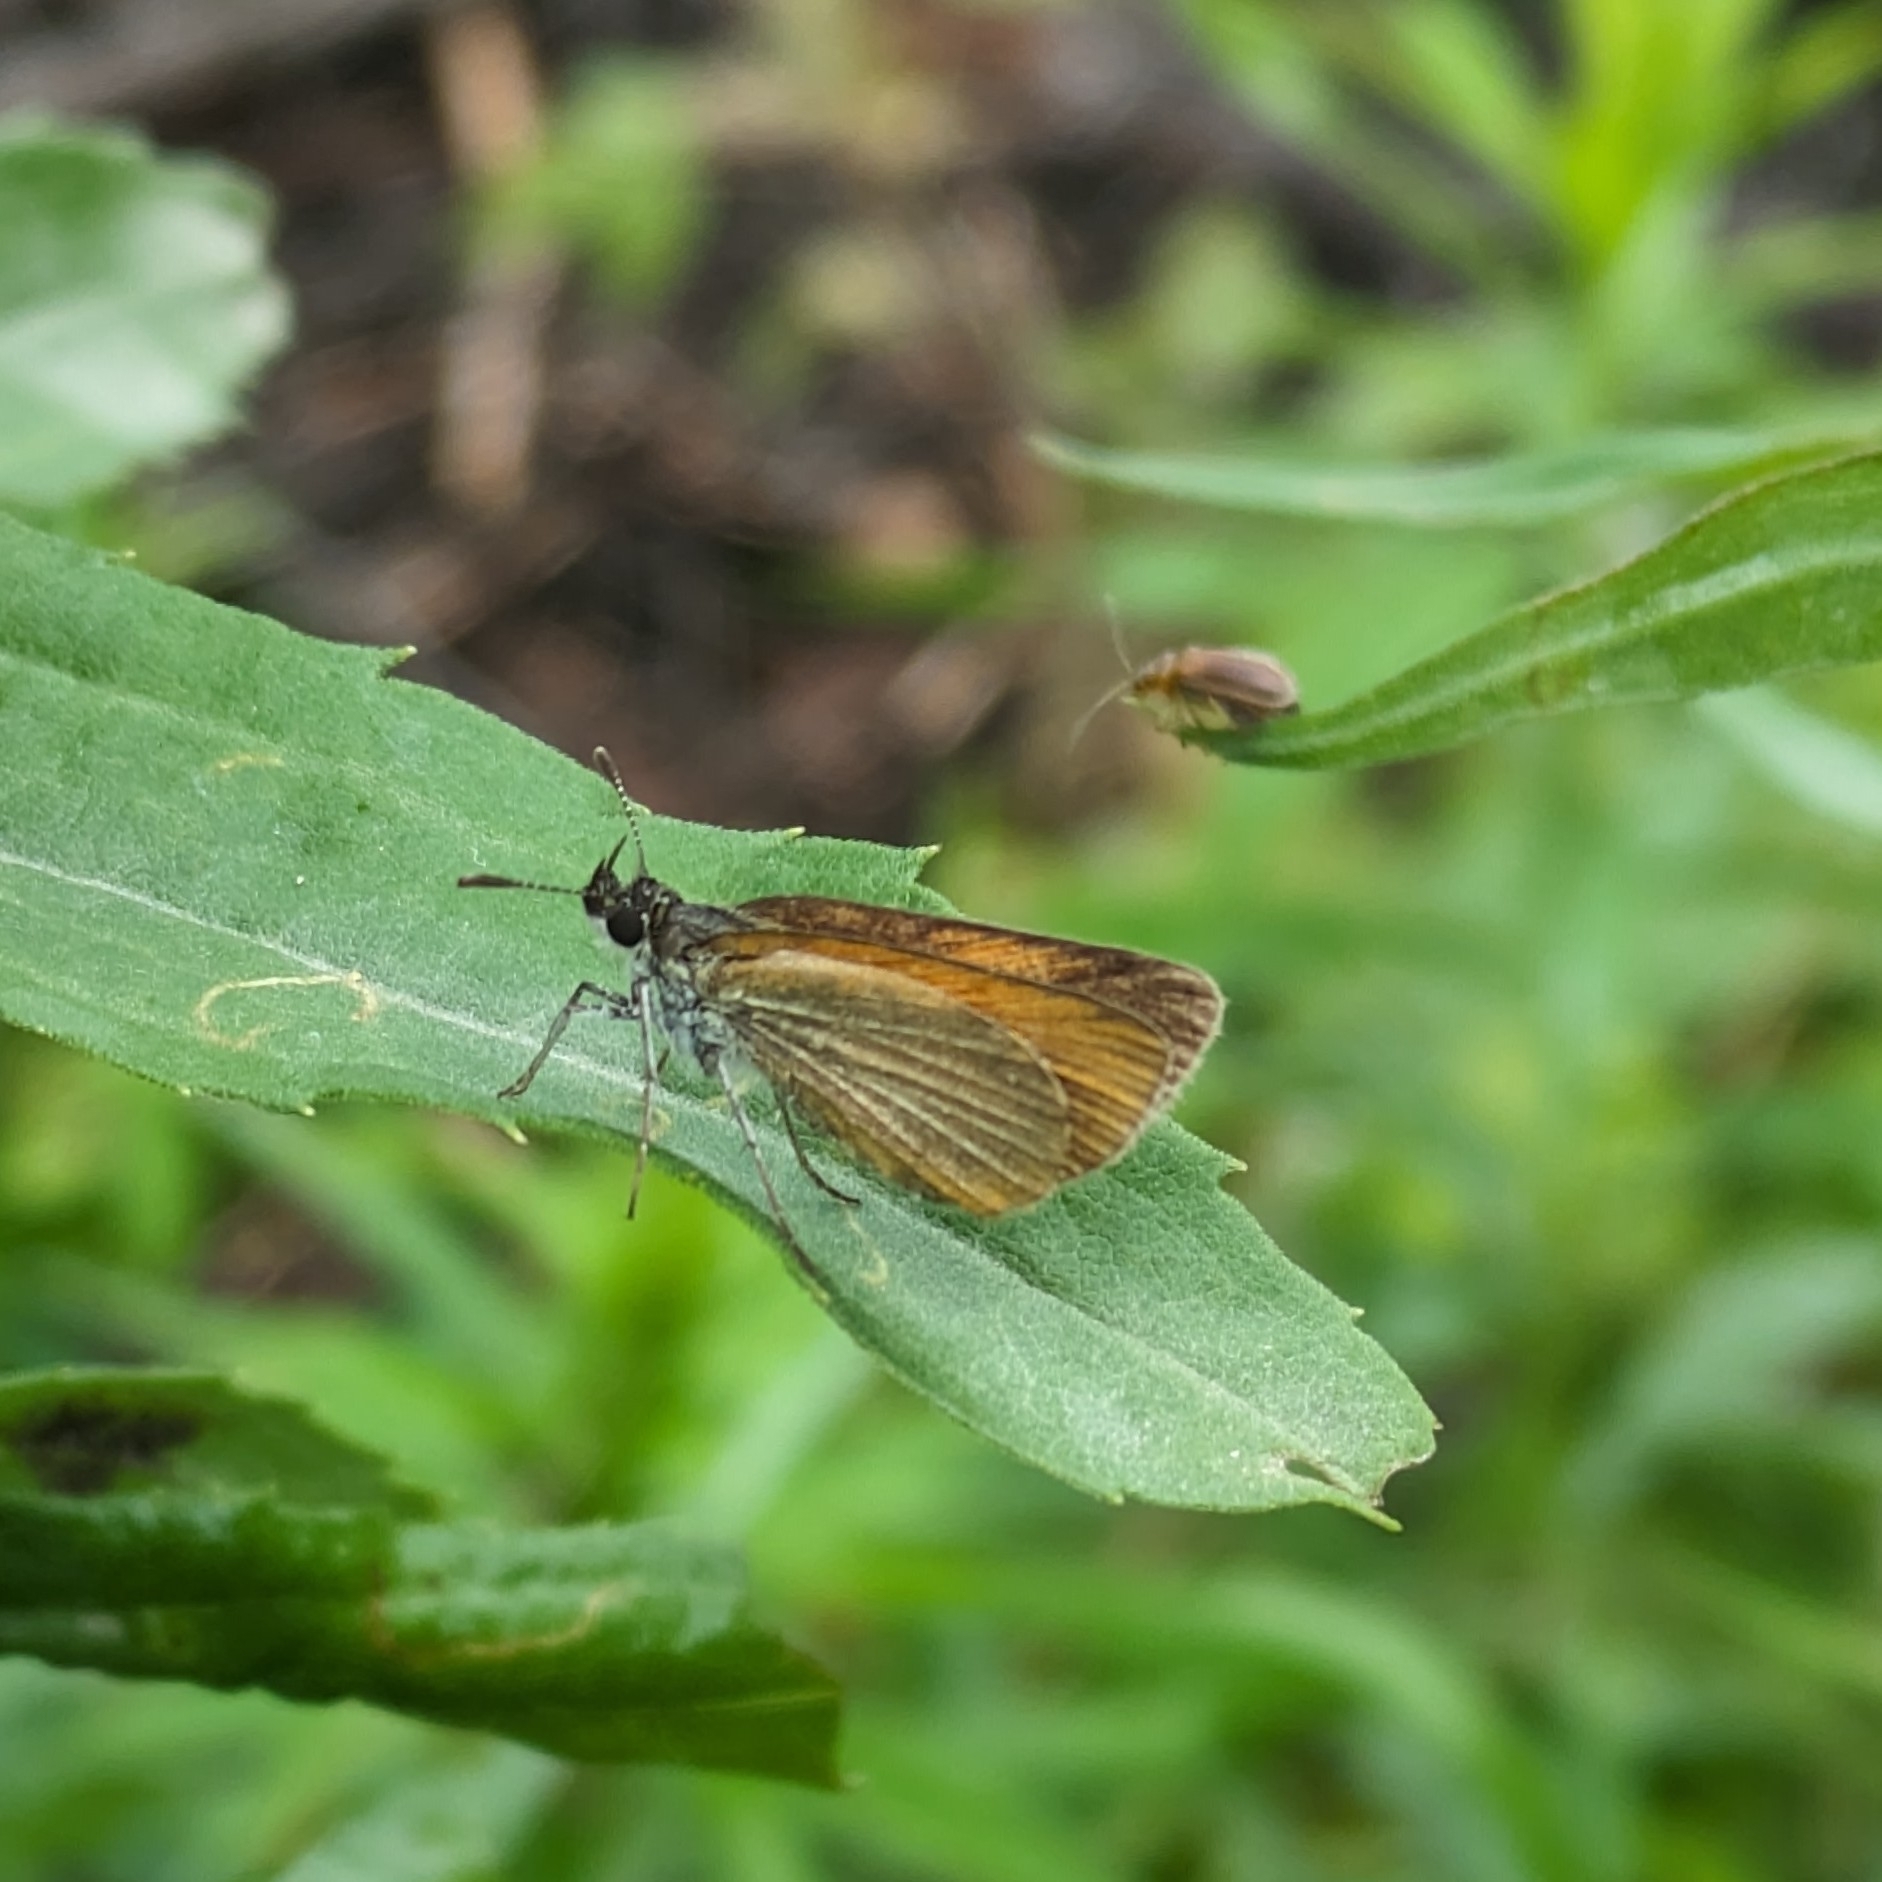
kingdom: Animalia
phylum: Arthropoda
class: Insecta
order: Lepidoptera
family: Hesperiidae
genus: Ancyloxypha
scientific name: Ancyloxypha numitor
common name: Least skipper
